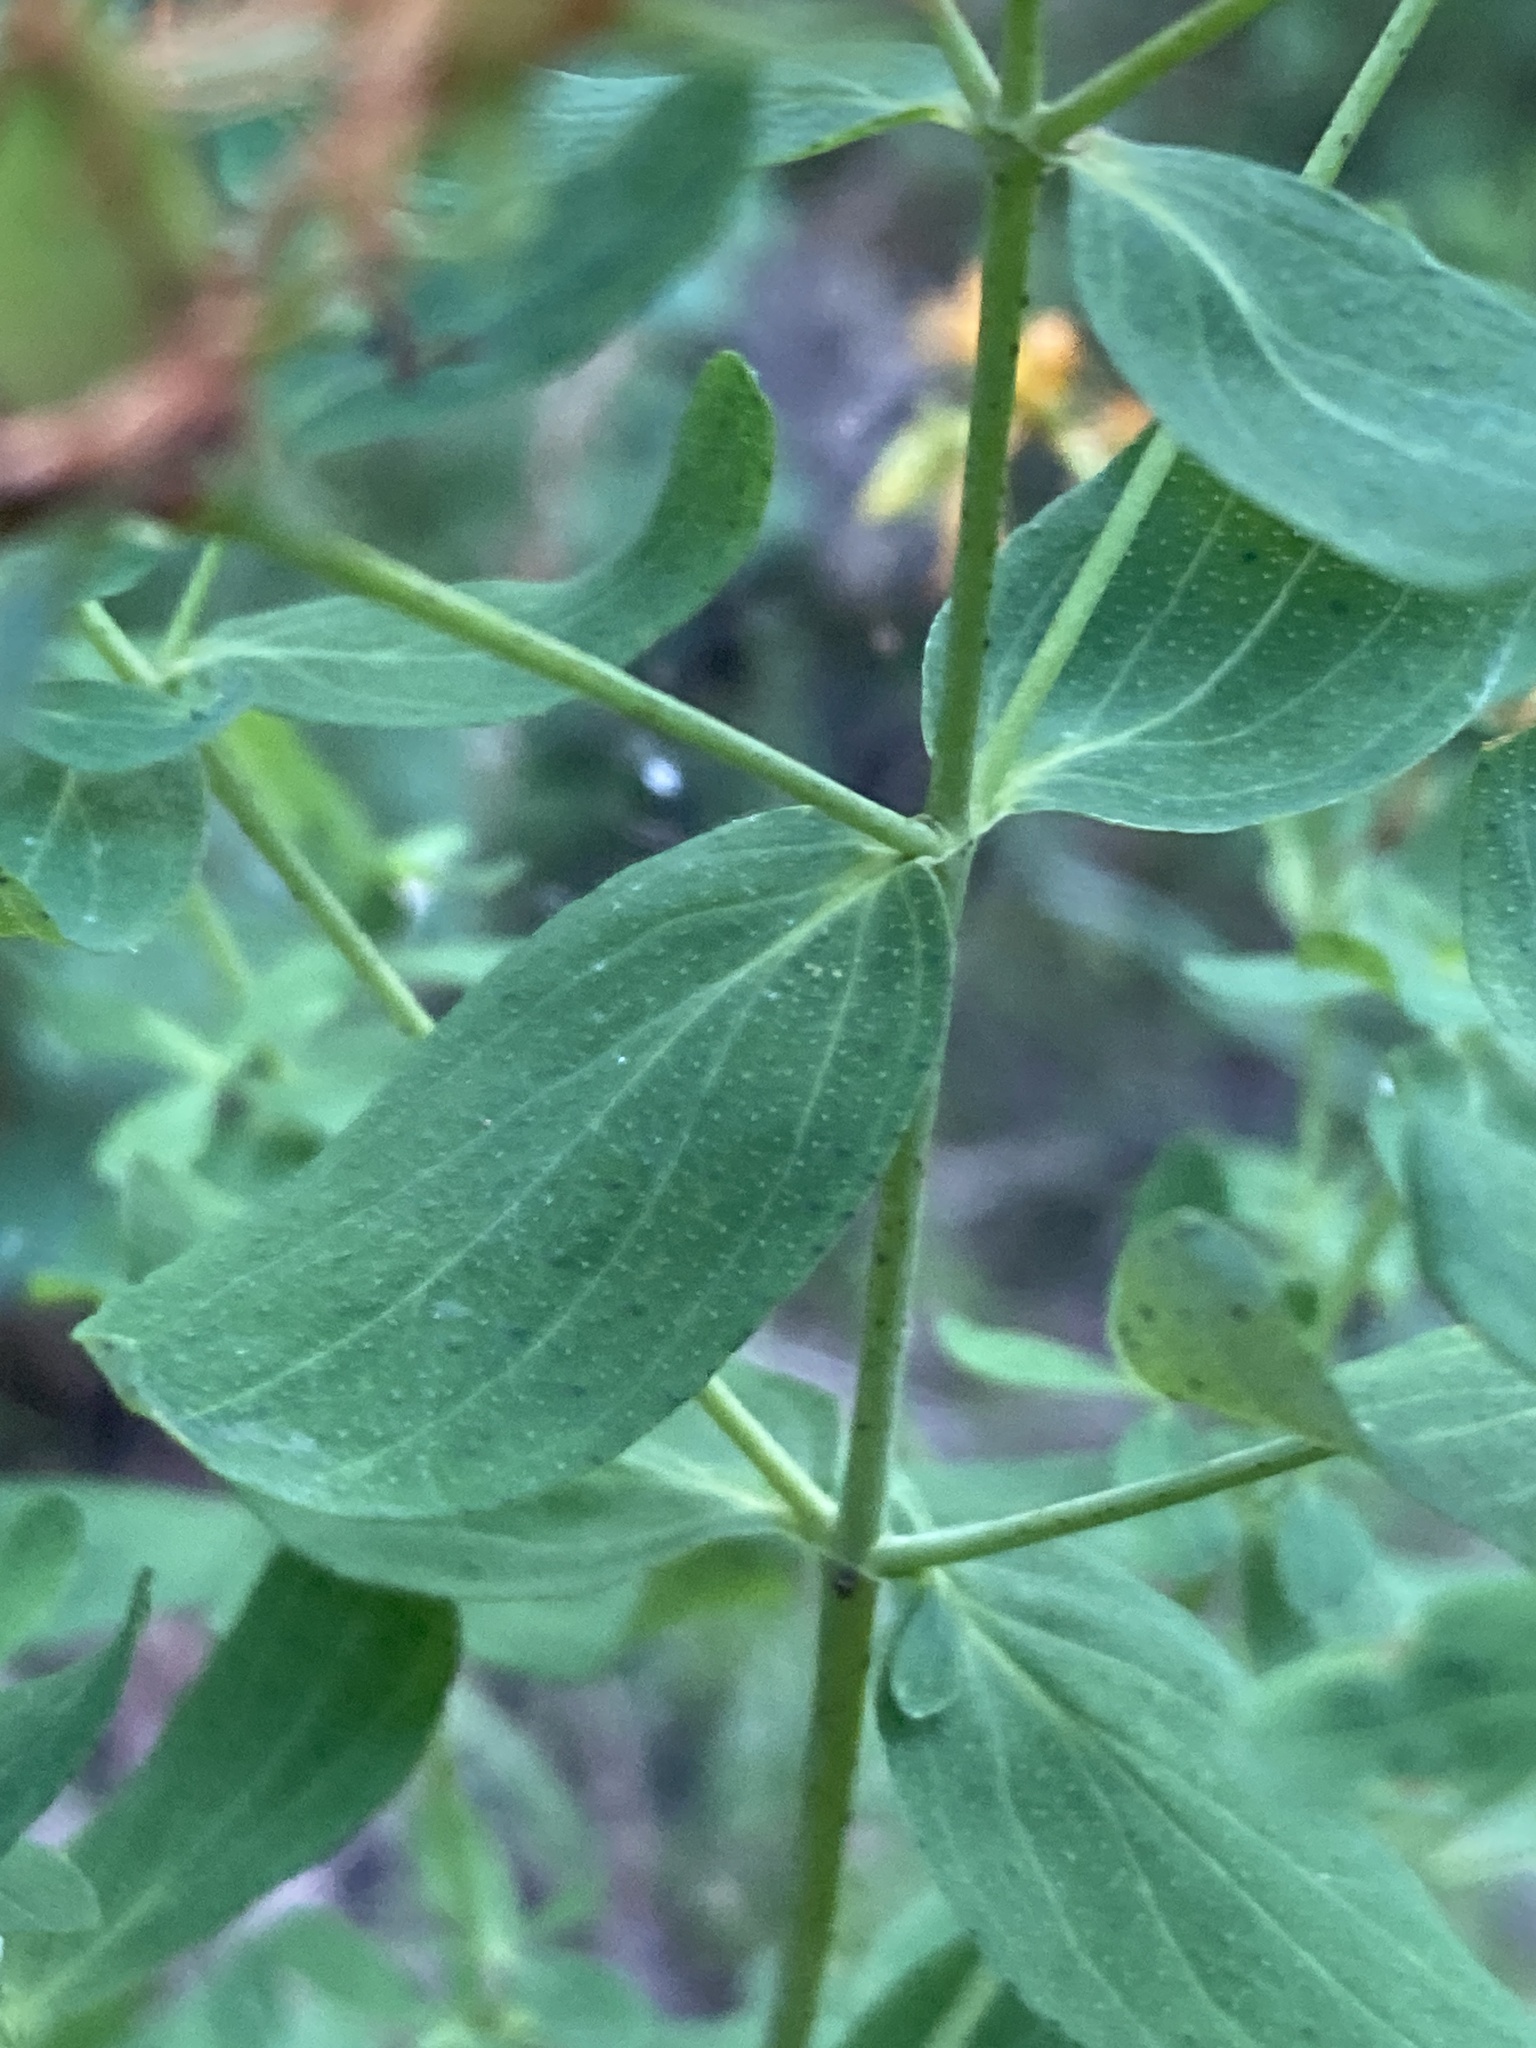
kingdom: Plantae
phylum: Tracheophyta
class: Magnoliopsida
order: Malpighiales
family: Hypericaceae
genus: Hypericum
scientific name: Hypericum perforatum
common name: Common st. johnswort
